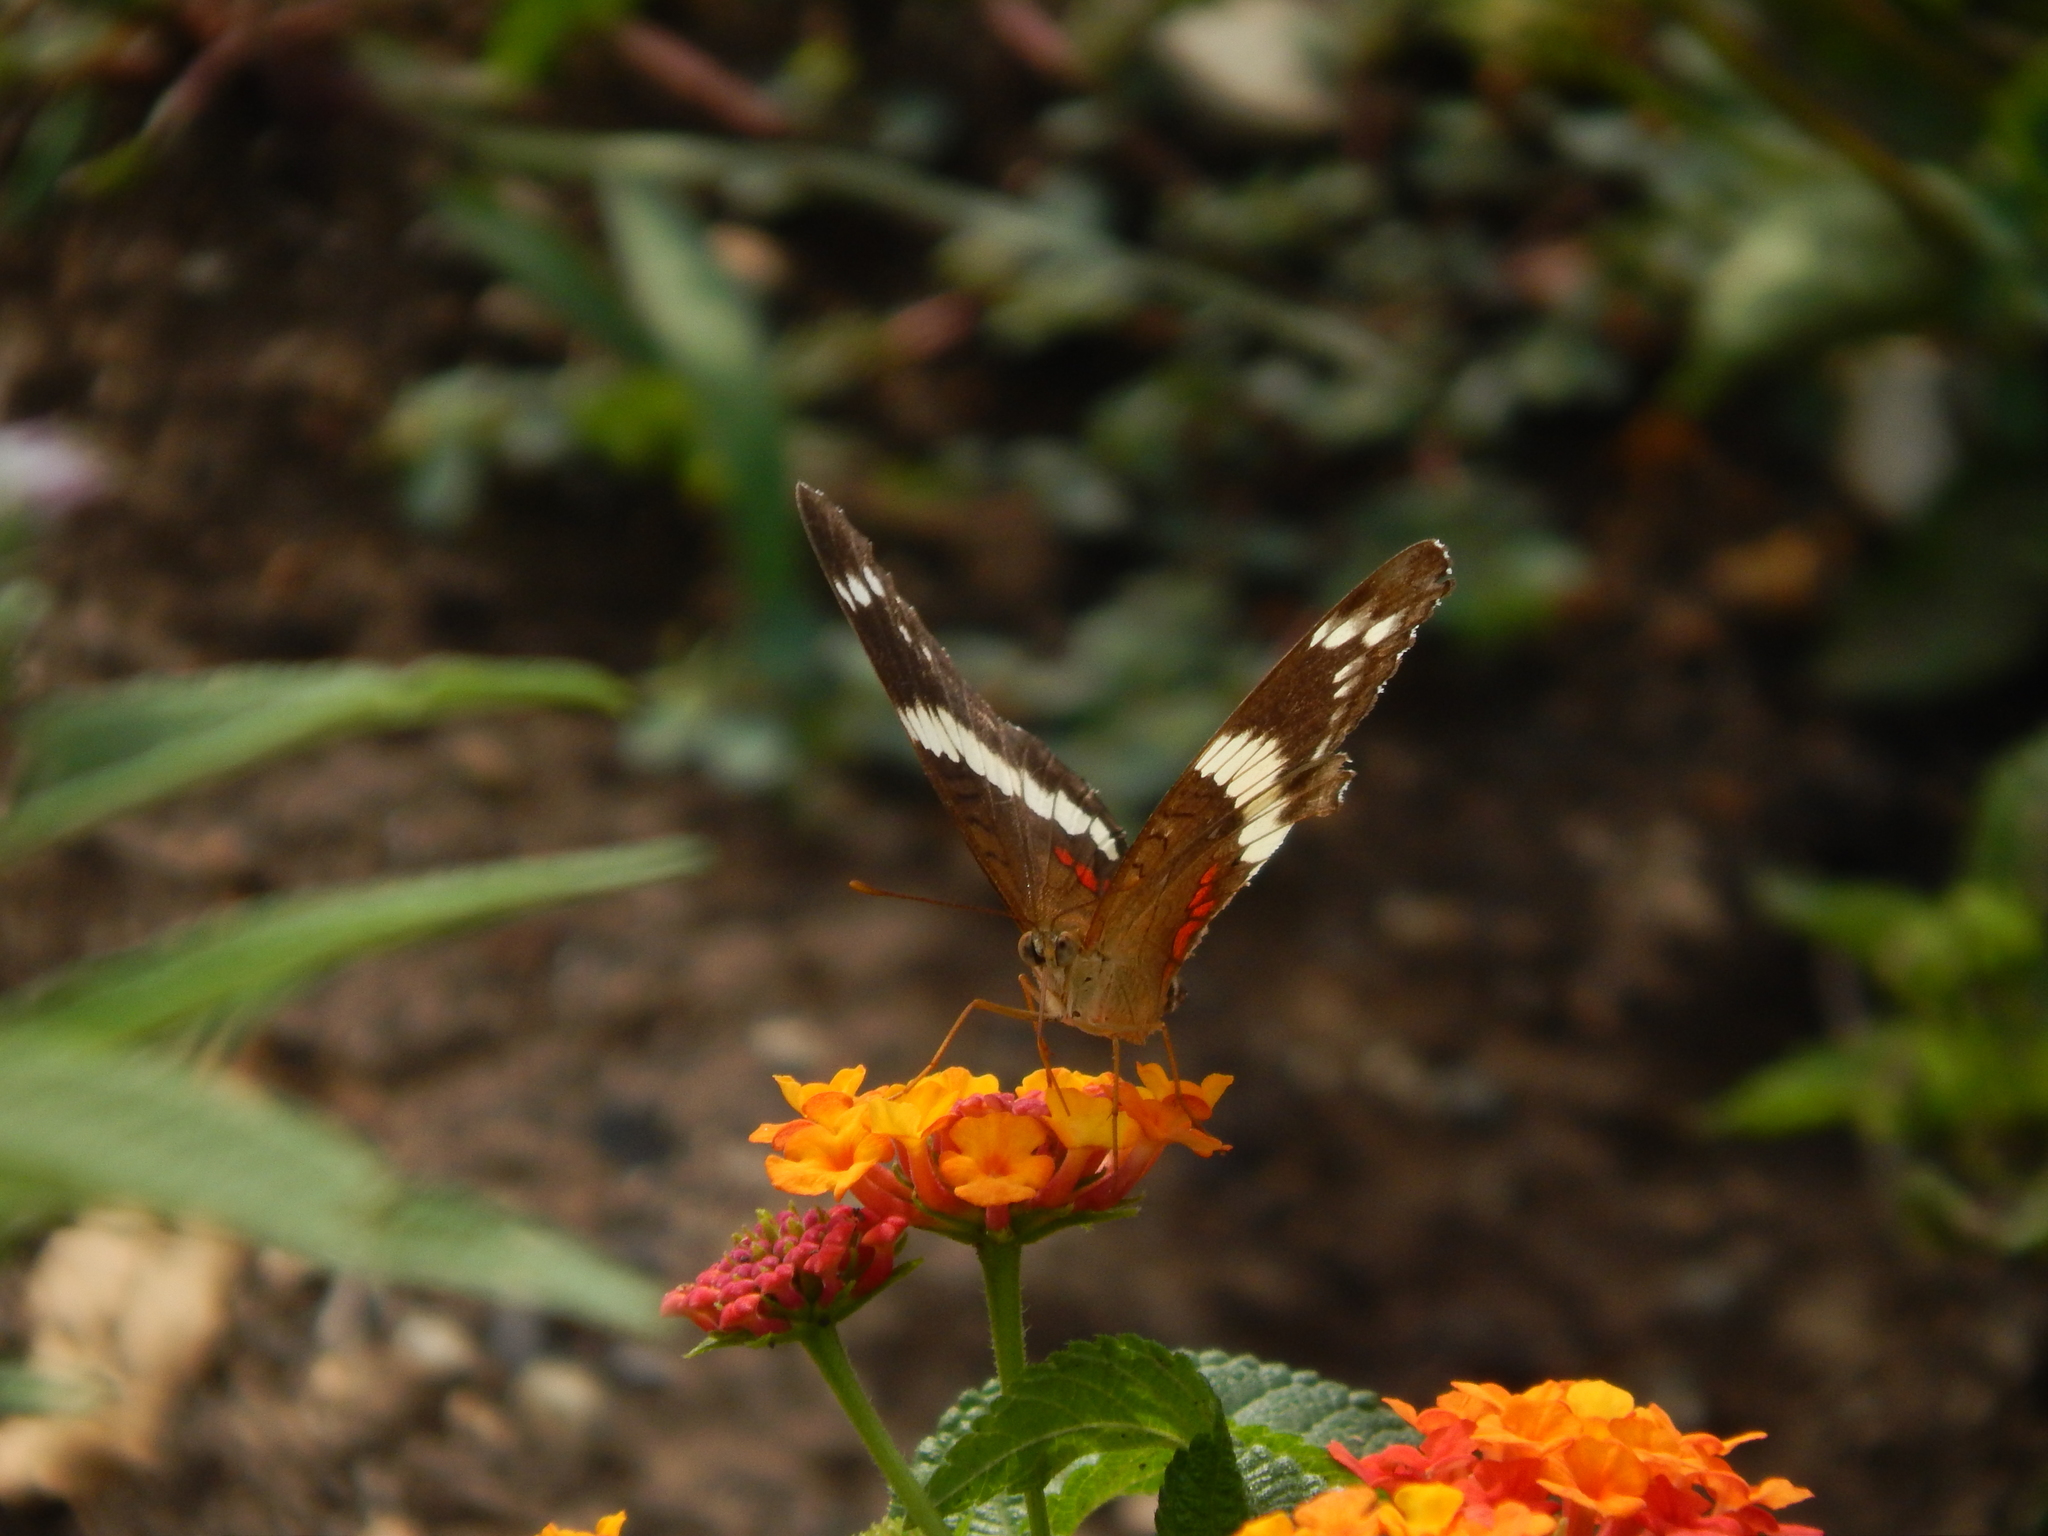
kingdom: Animalia
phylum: Arthropoda
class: Insecta
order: Lepidoptera
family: Nymphalidae
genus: Anartia
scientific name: Anartia fatima
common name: Banded peacock
